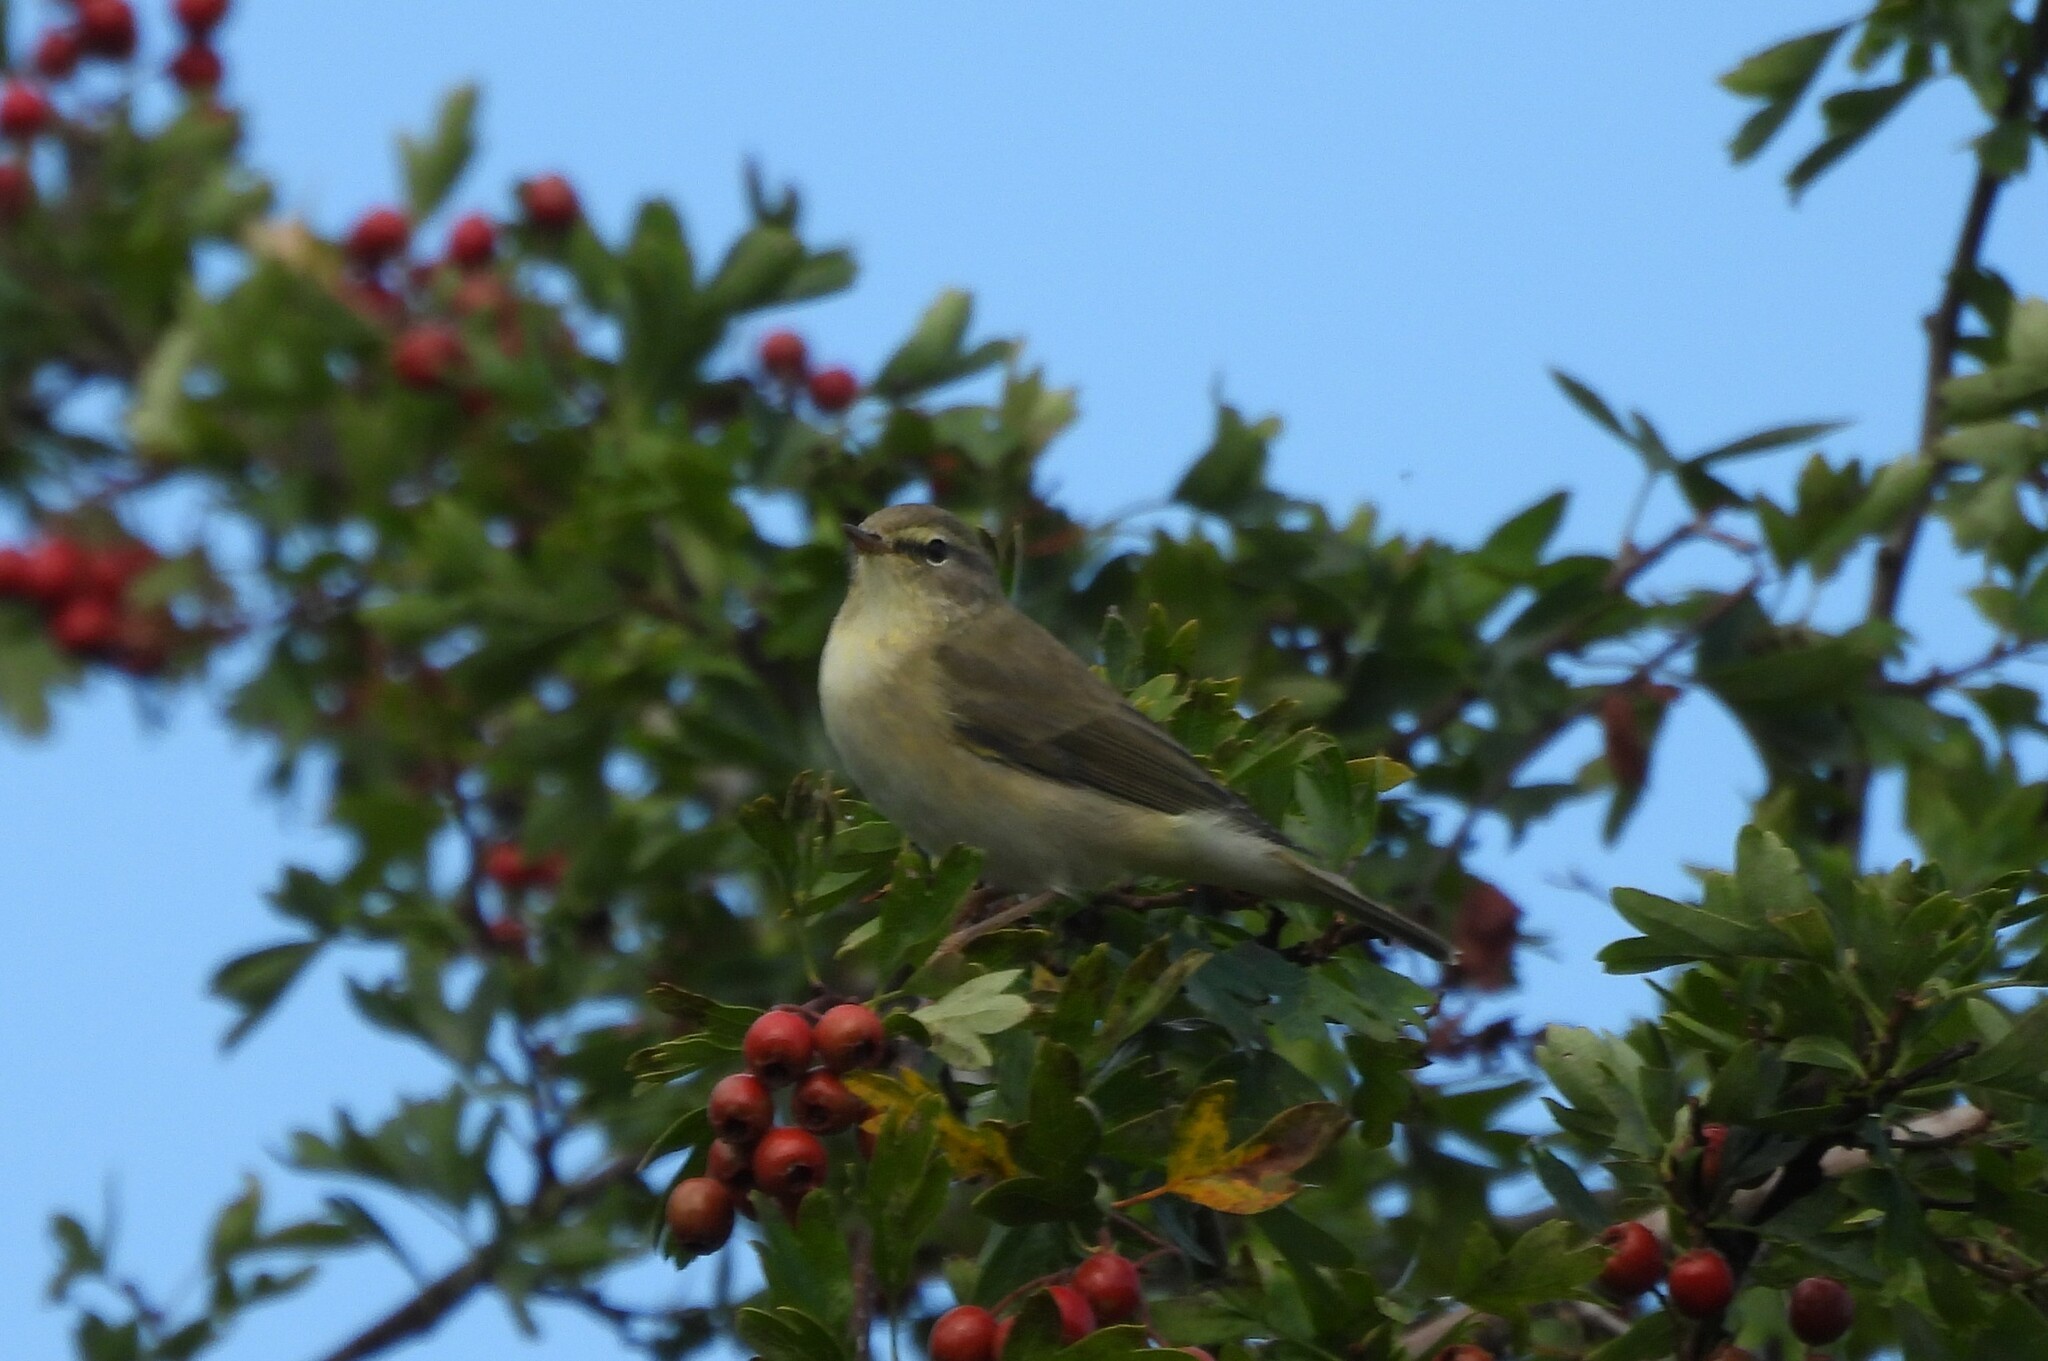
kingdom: Animalia
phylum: Chordata
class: Aves
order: Passeriformes
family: Phylloscopidae
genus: Phylloscopus
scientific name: Phylloscopus trochilus
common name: Willow warbler
